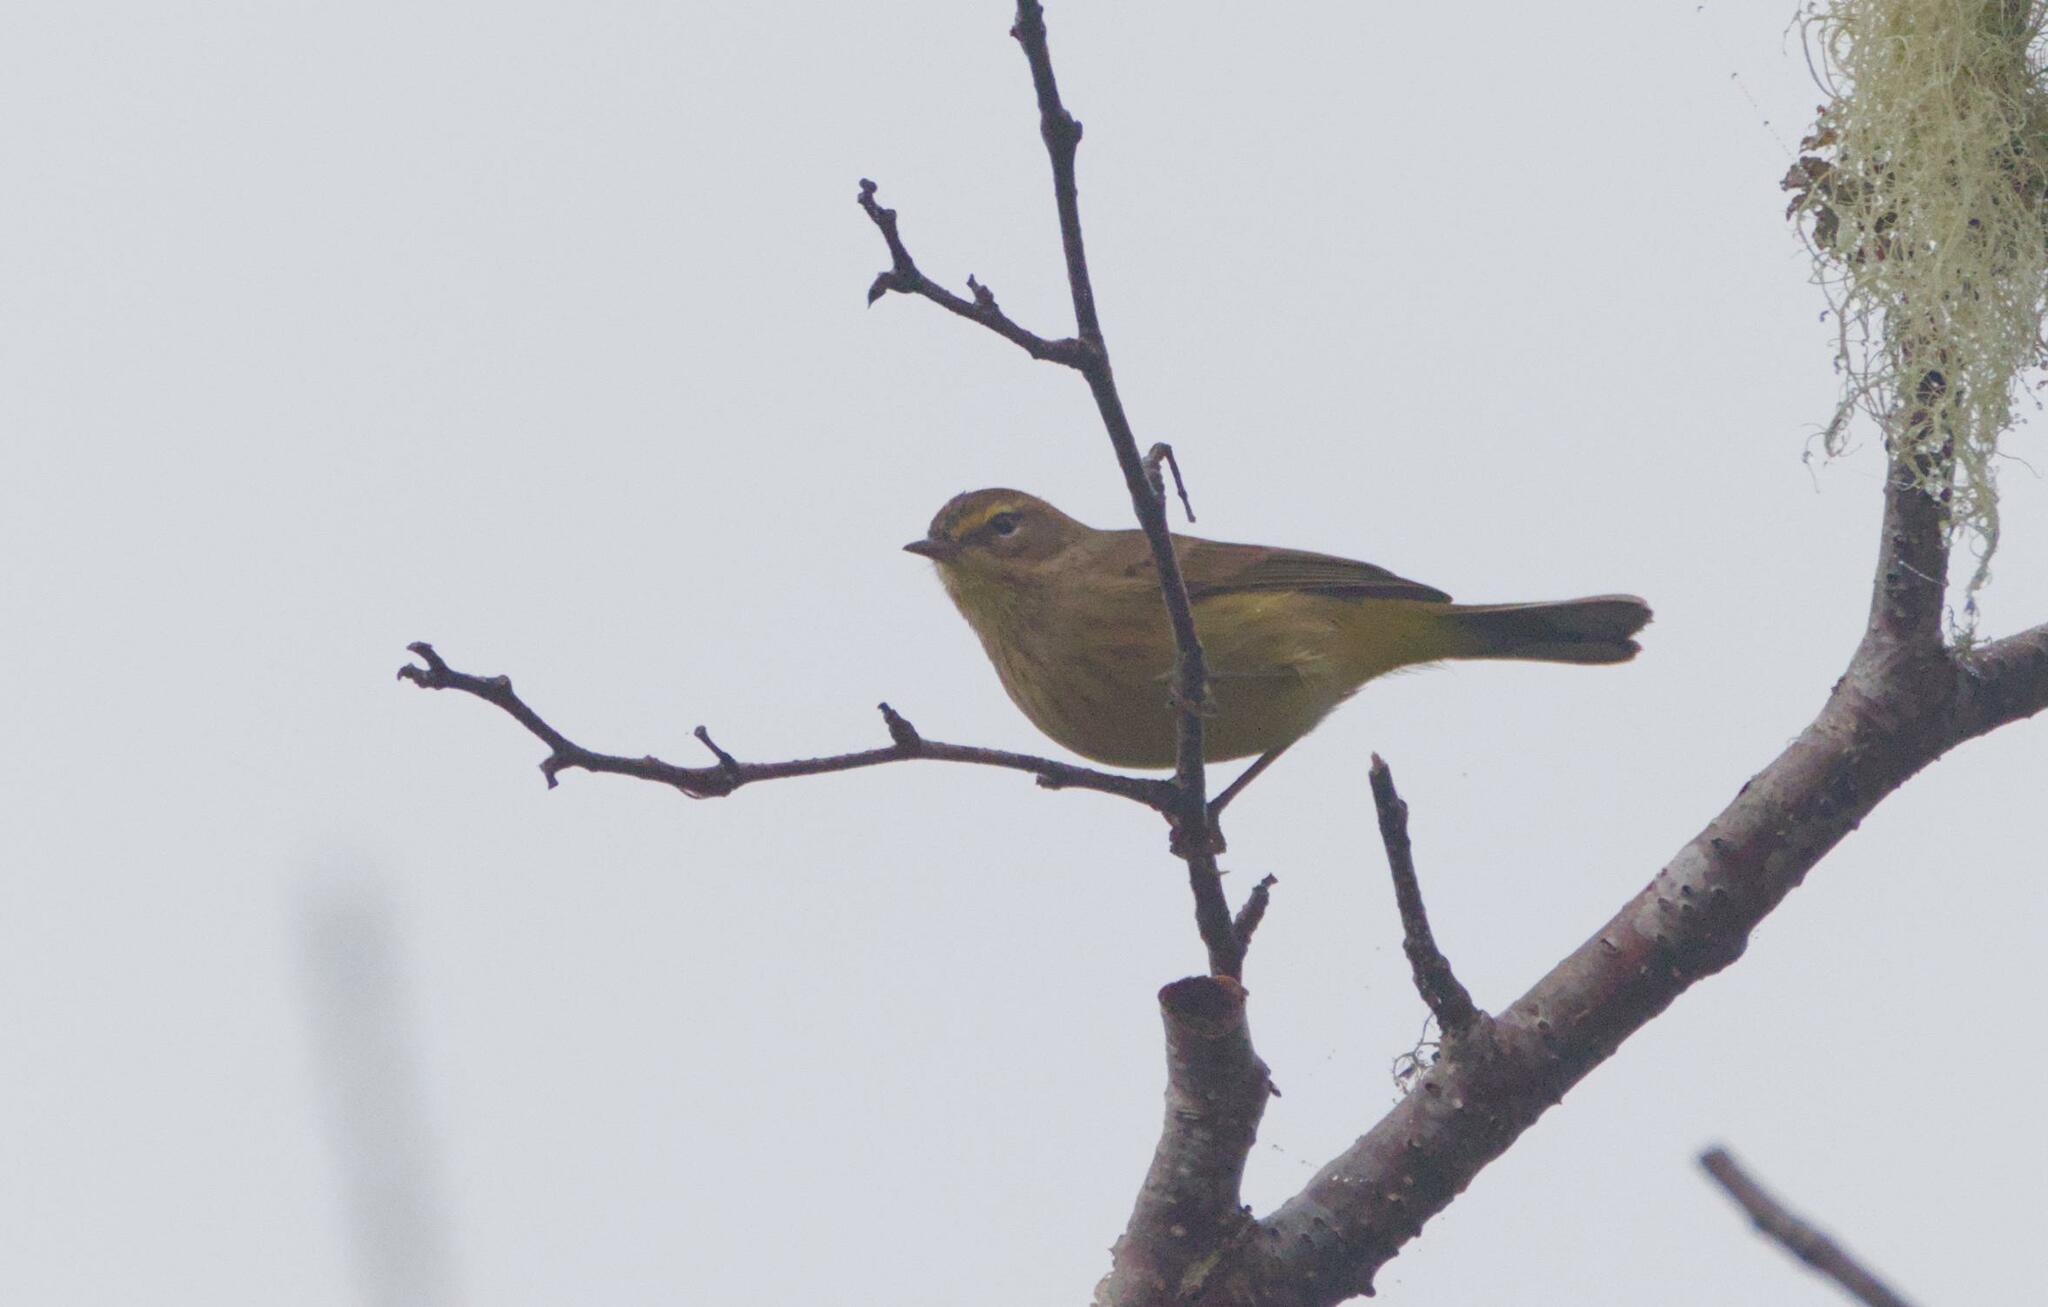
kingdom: Animalia
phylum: Chordata
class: Aves
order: Passeriformes
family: Parulidae
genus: Setophaga
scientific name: Setophaga palmarum
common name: Palm warbler
